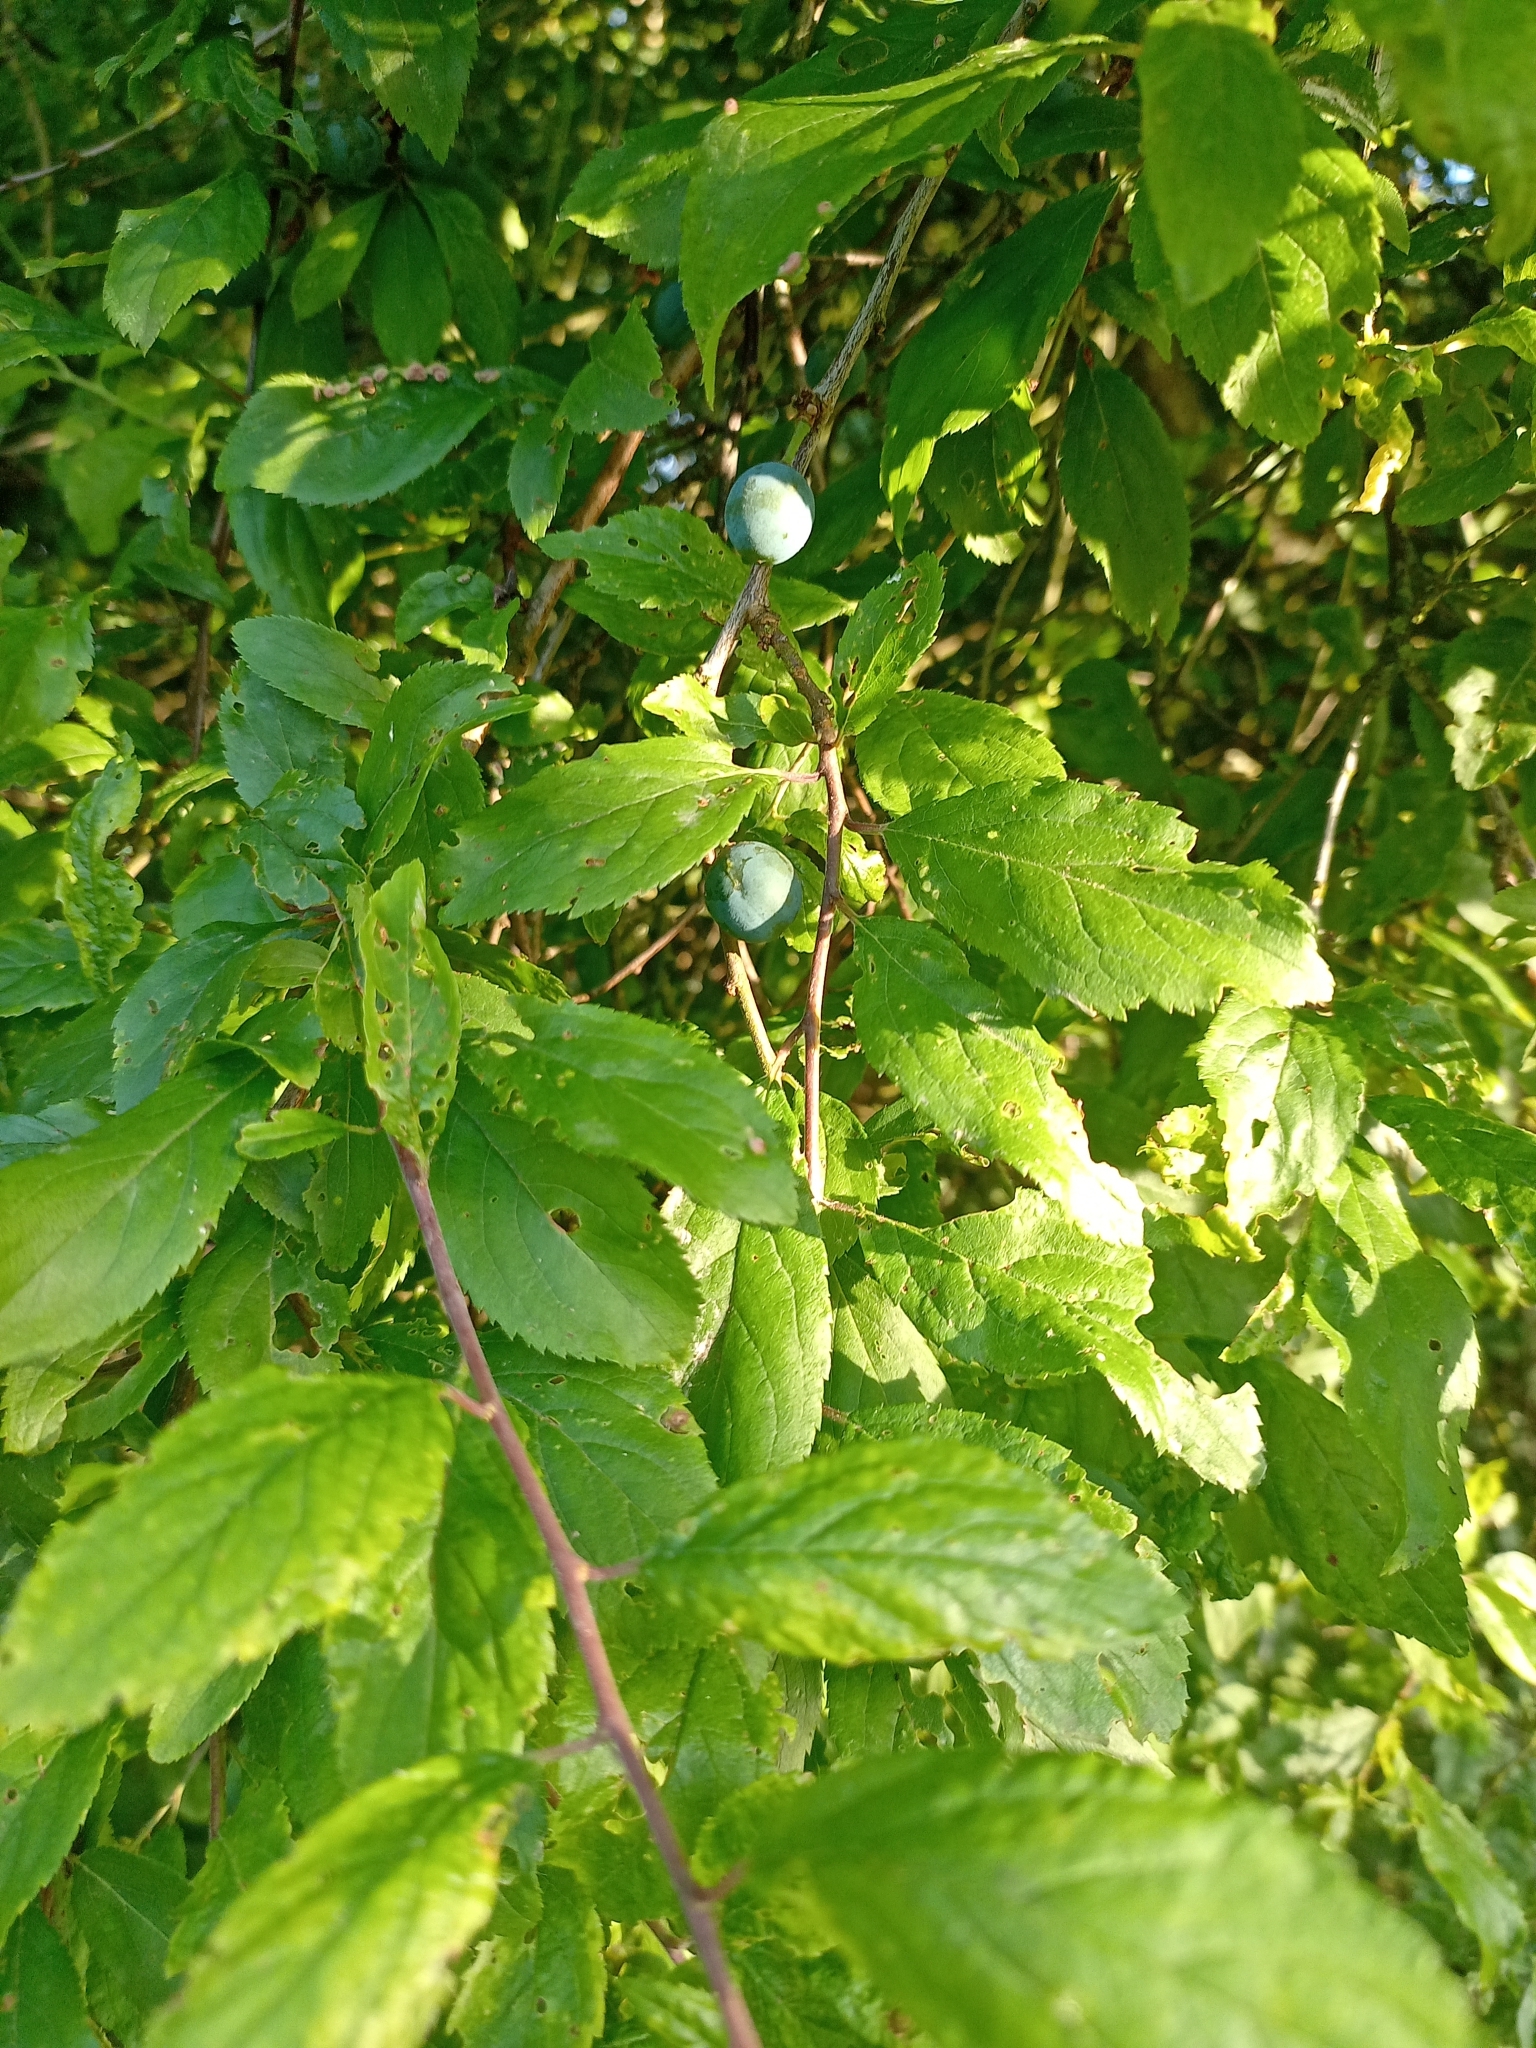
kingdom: Plantae
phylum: Tracheophyta
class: Magnoliopsida
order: Rosales
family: Rosaceae
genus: Prunus
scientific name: Prunus spinosa
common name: Blackthorn
